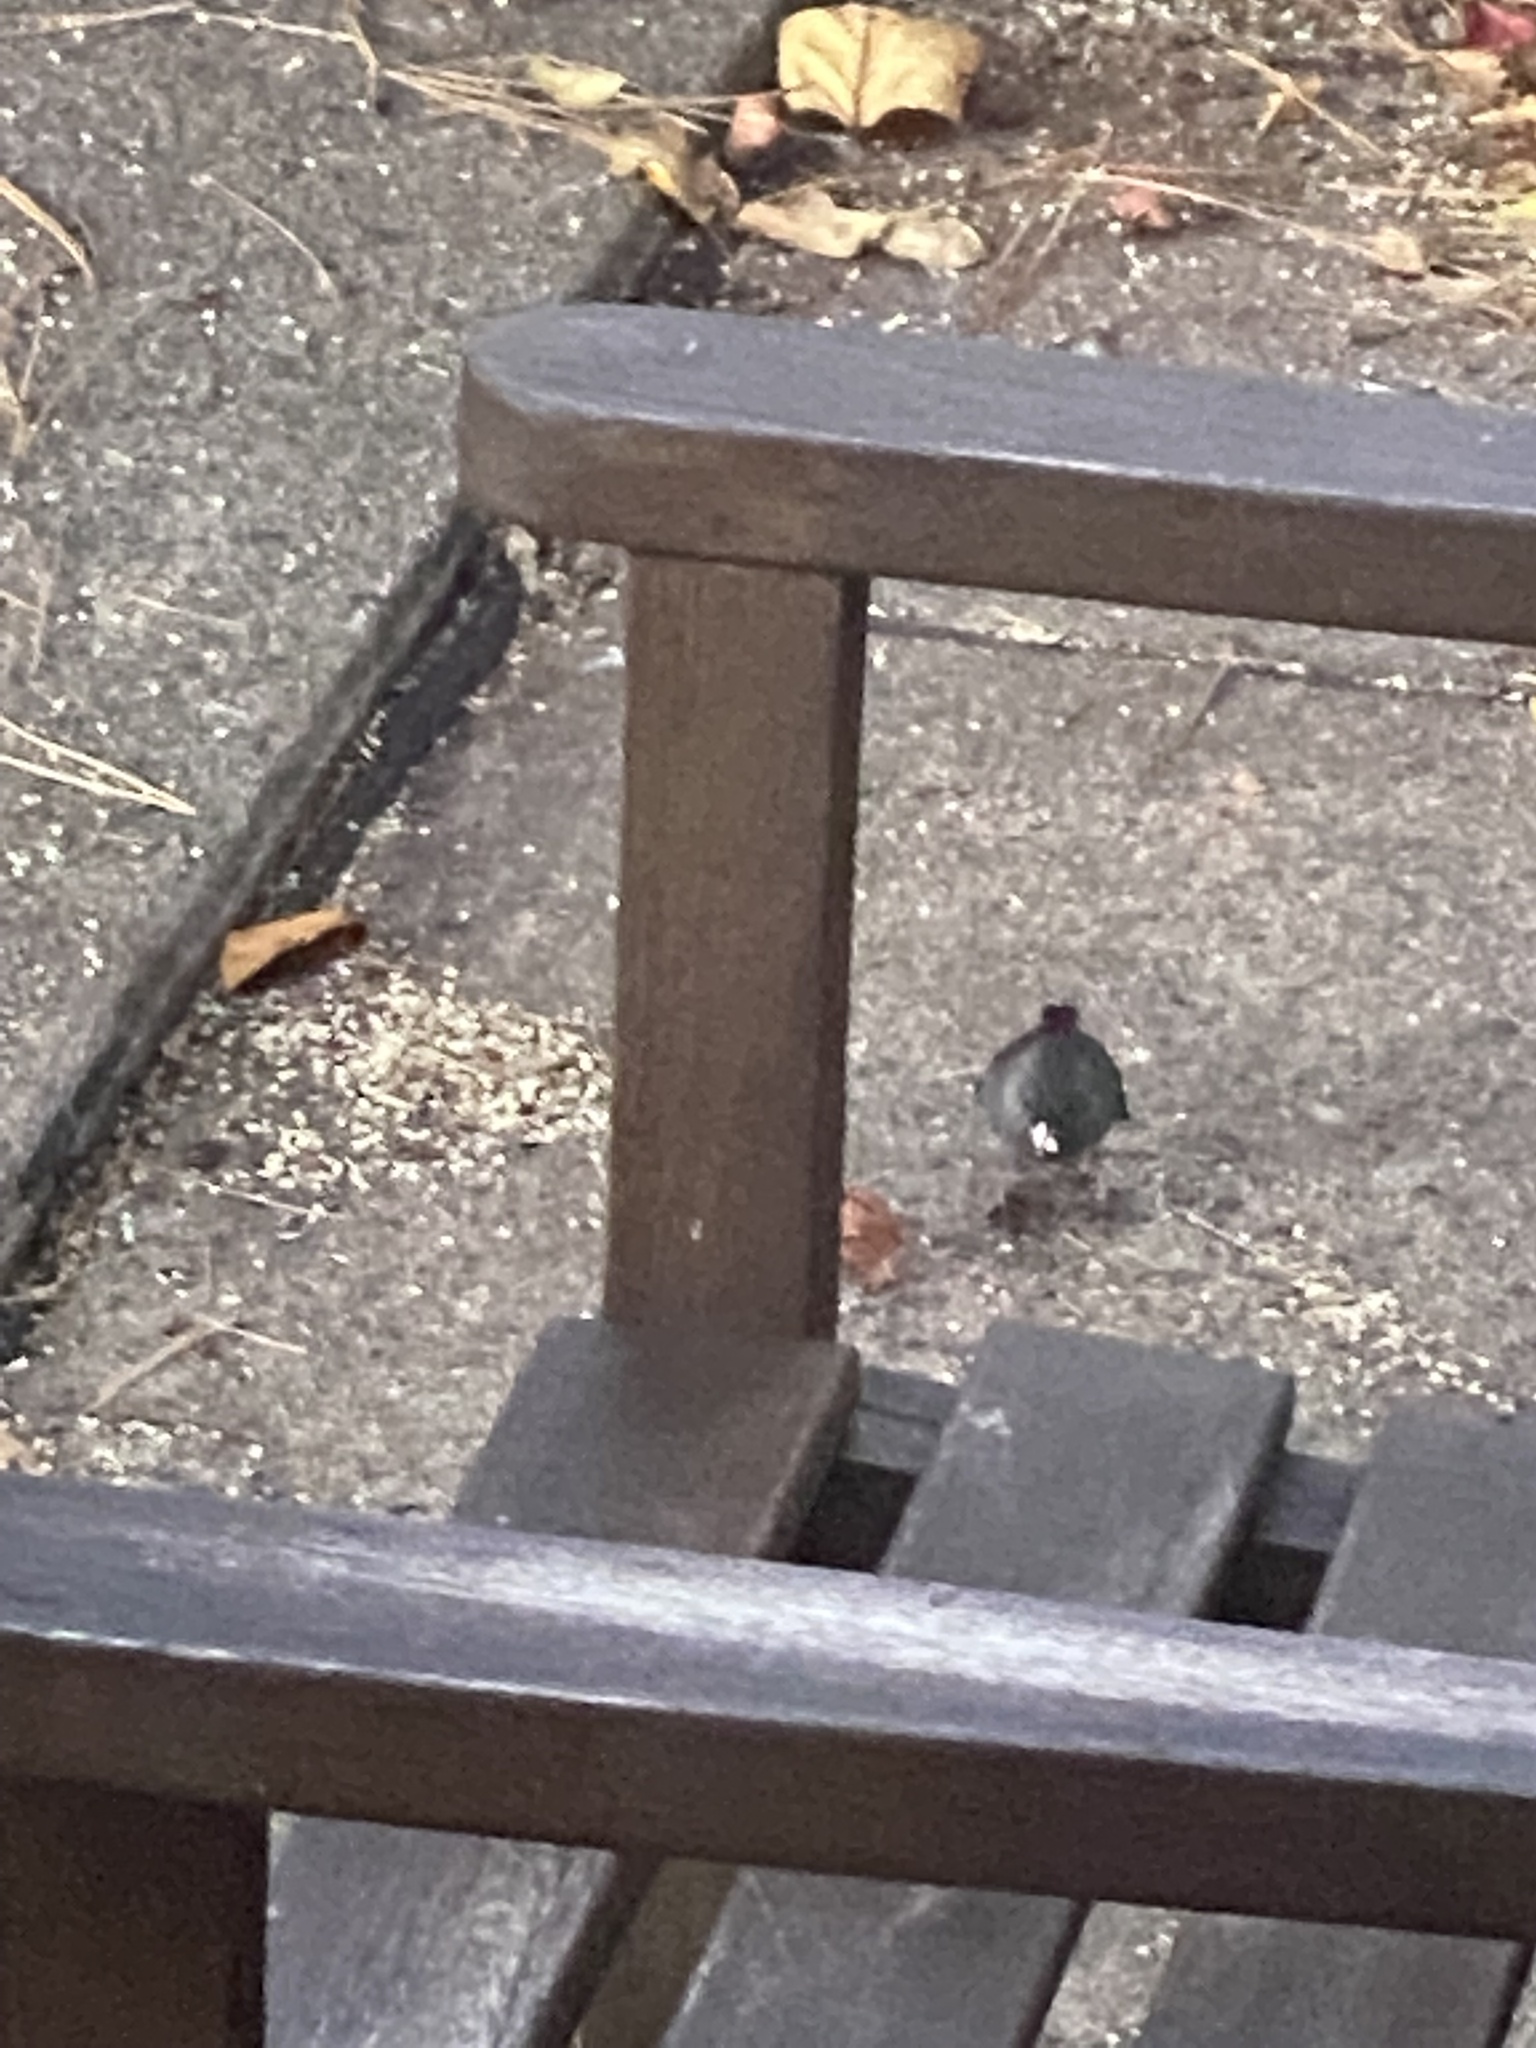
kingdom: Animalia
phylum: Chordata
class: Aves
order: Passeriformes
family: Passerellidae
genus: Junco
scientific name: Junco hyemalis
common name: Dark-eyed junco
